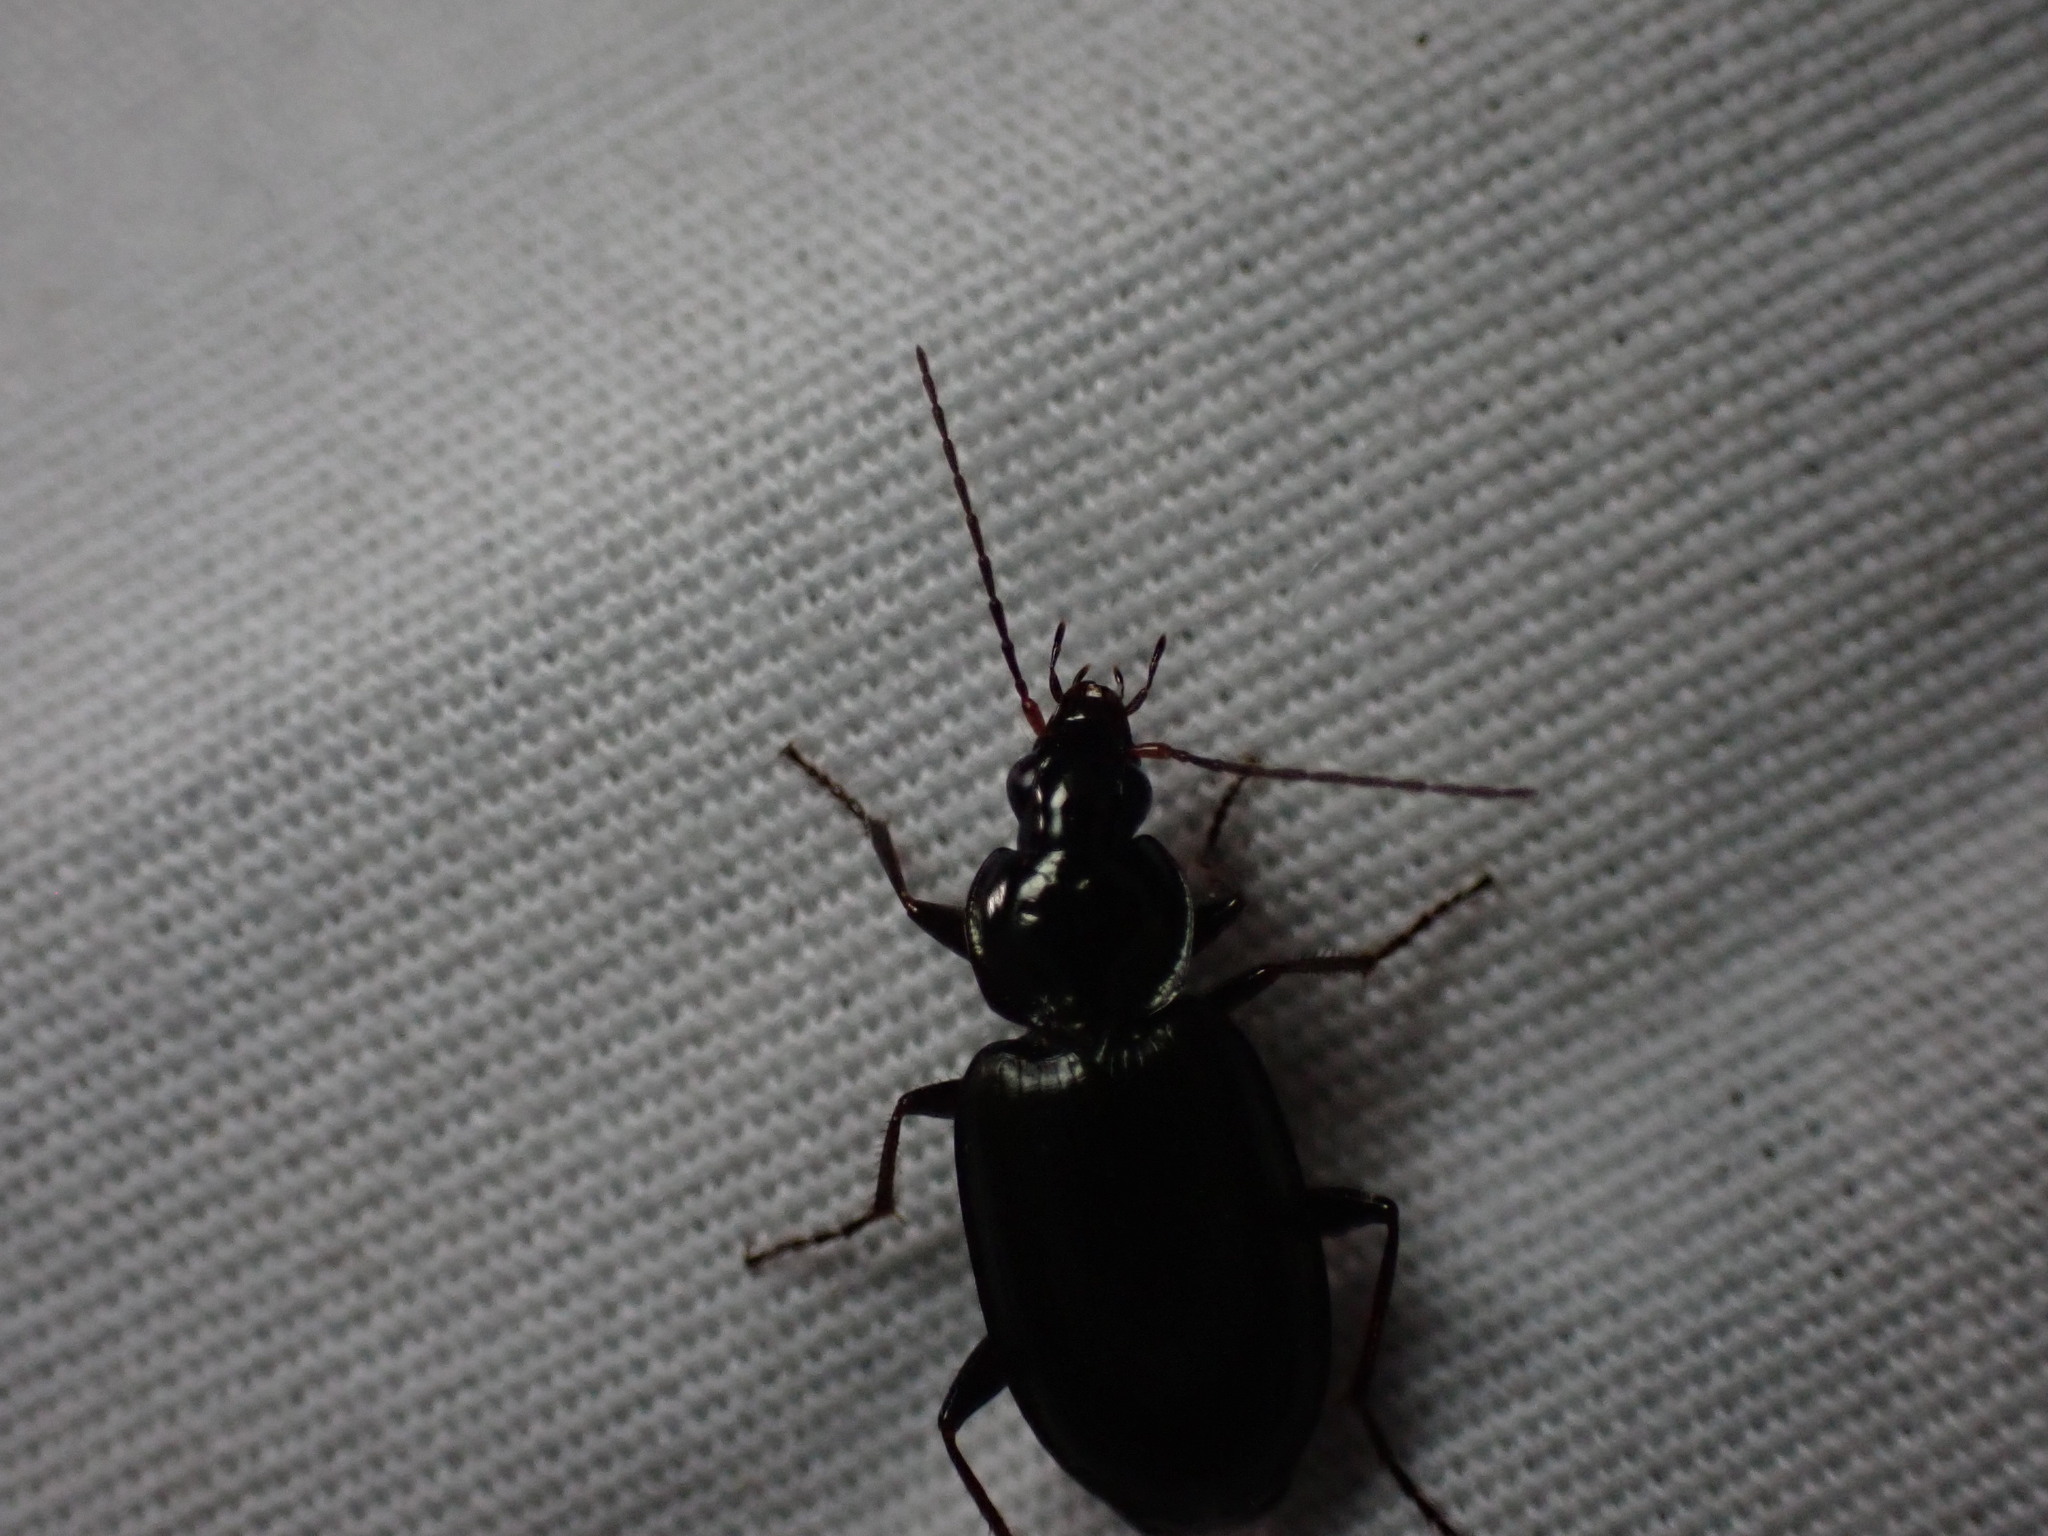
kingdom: Animalia
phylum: Arthropoda
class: Insecta
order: Coleoptera
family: Carabidae
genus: Agonum
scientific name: Agonum placidum
